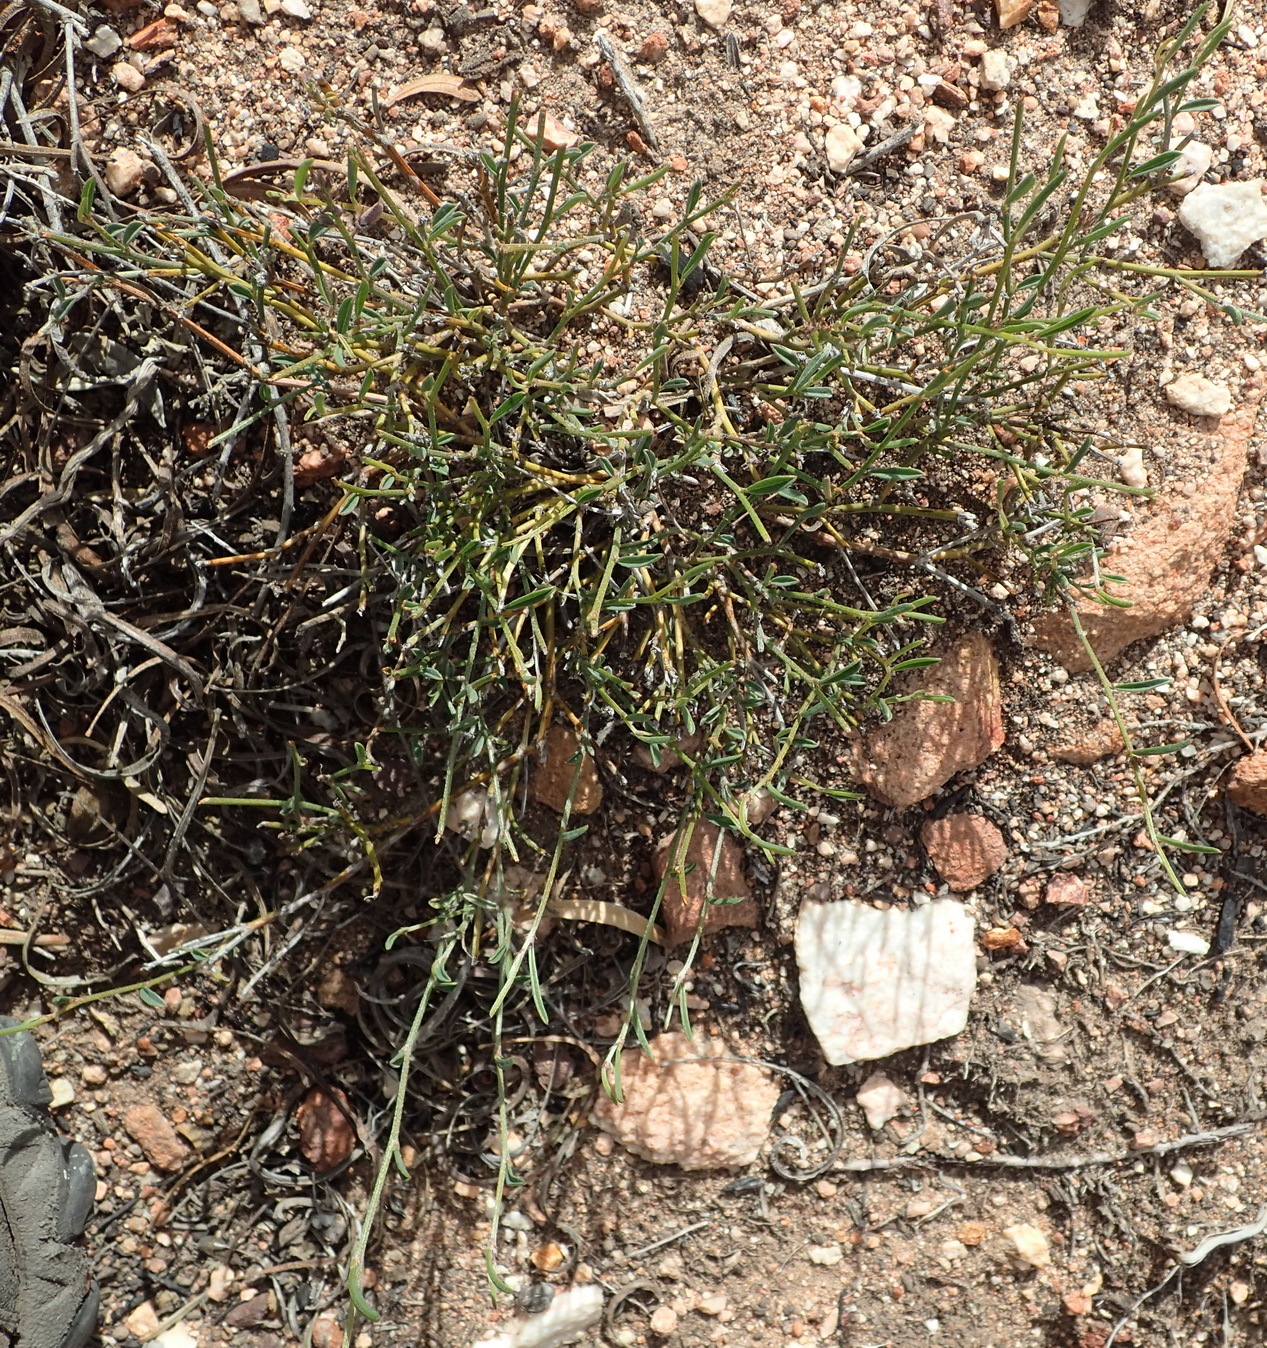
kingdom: Plantae
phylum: Tracheophyta
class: Magnoliopsida
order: Fabales
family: Fabaceae
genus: Indigofera
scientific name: Indigofera leptocarpa
